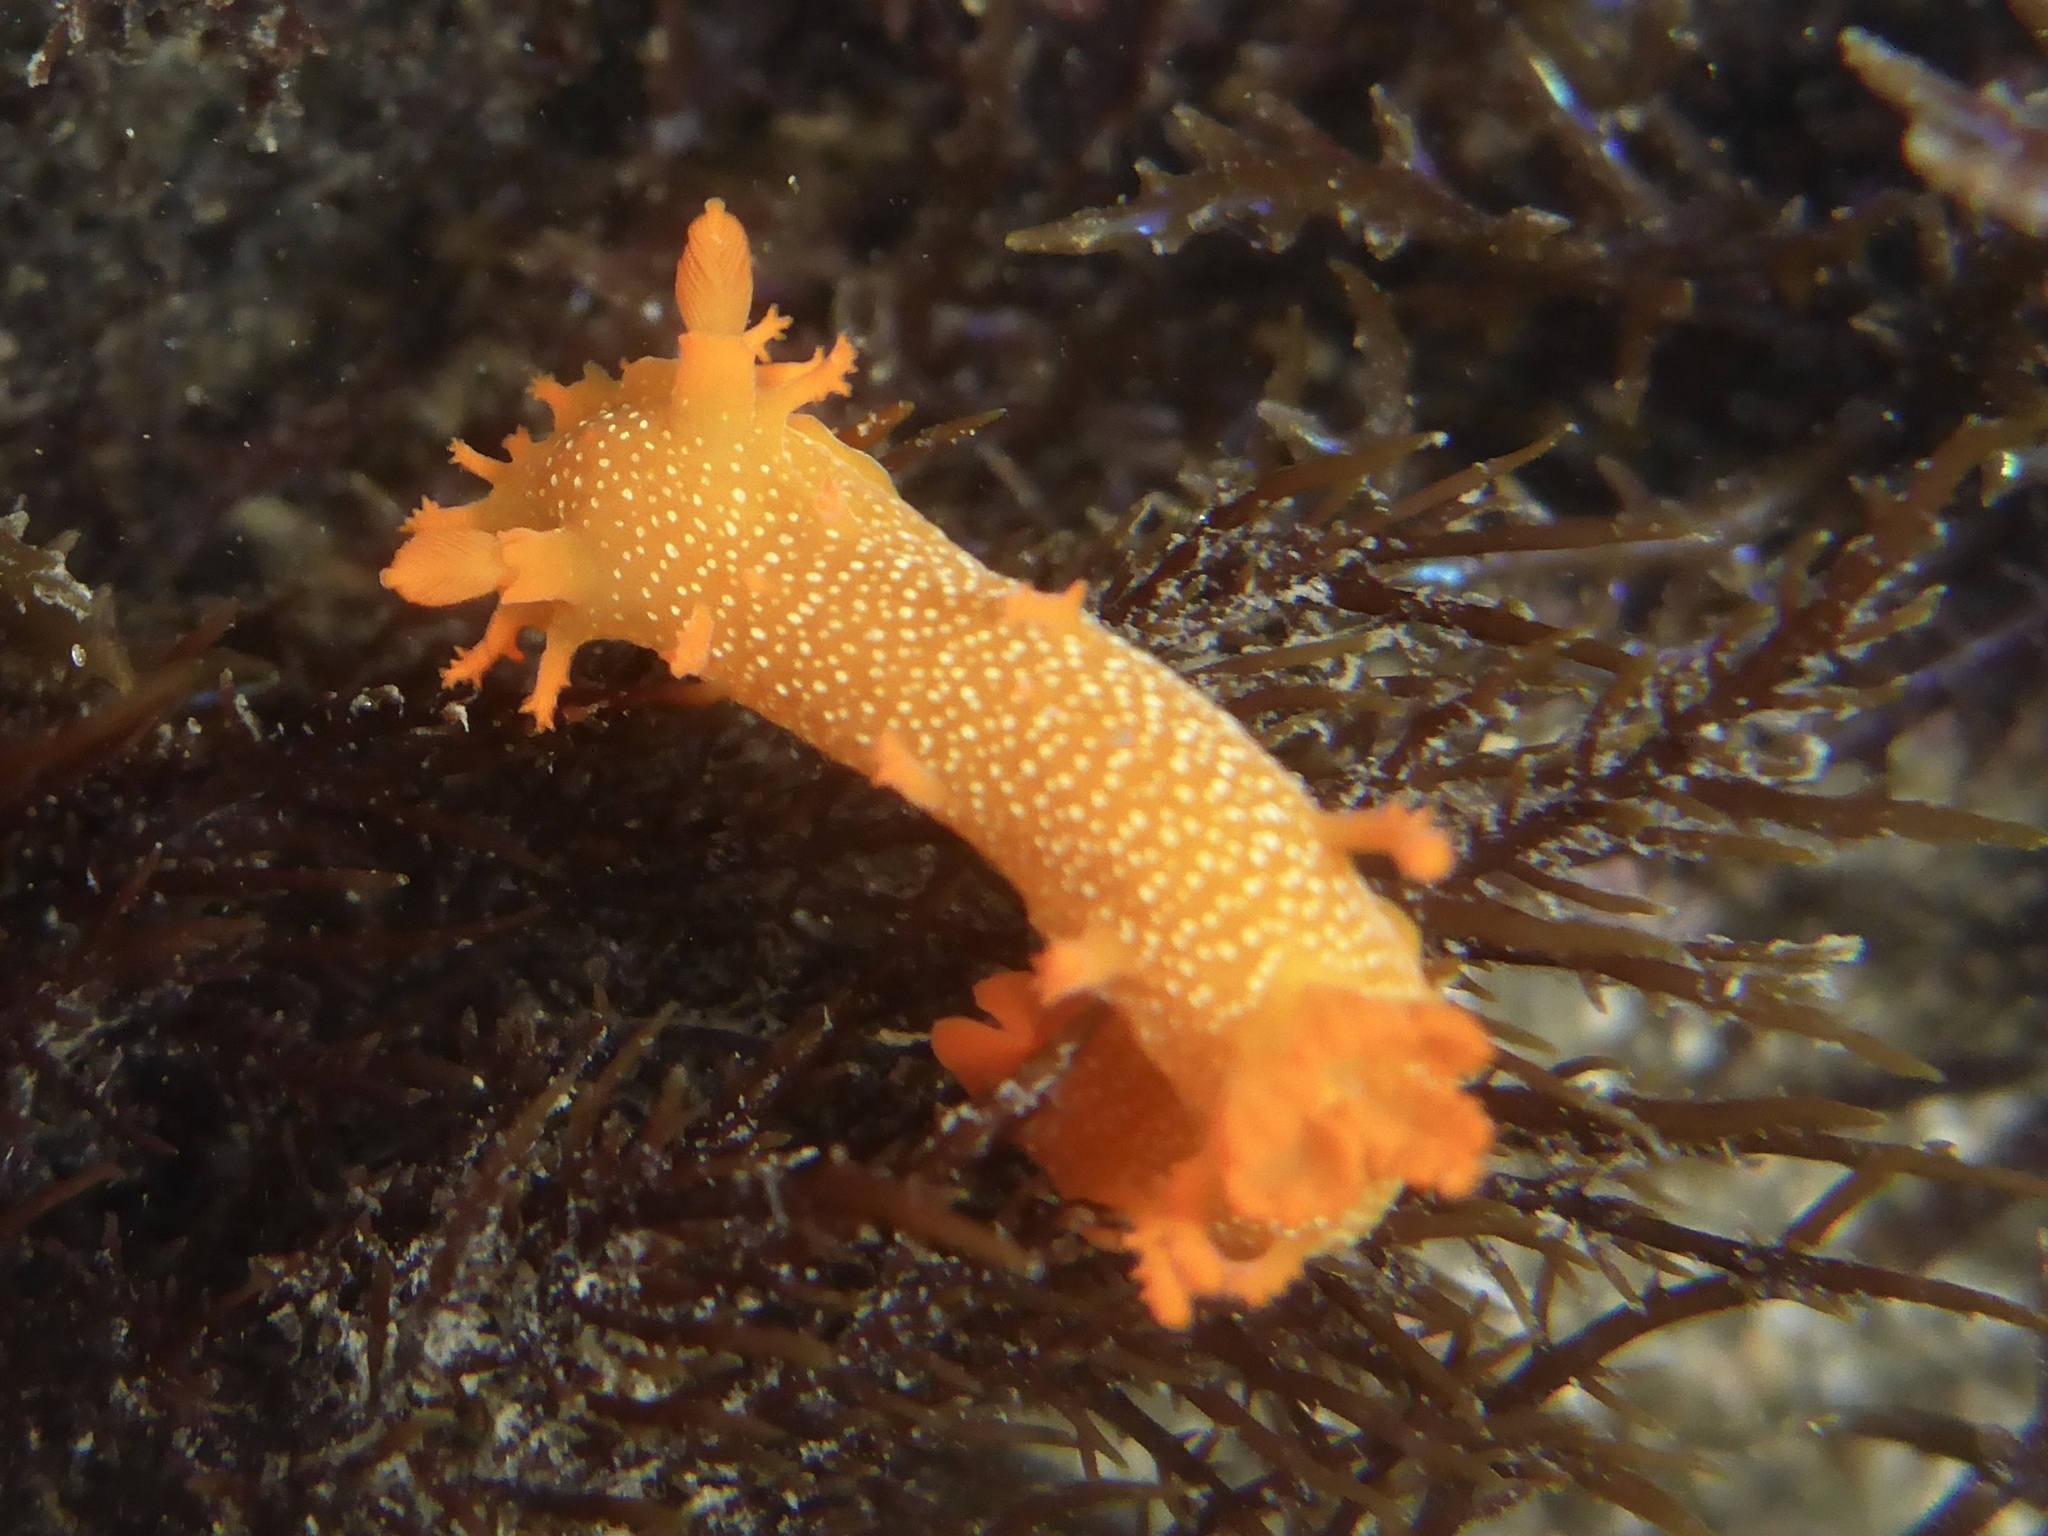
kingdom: Animalia
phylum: Mollusca
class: Gastropoda
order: Nudibranchia
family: Polyceridae
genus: Triopha
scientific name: Triopha maculata
